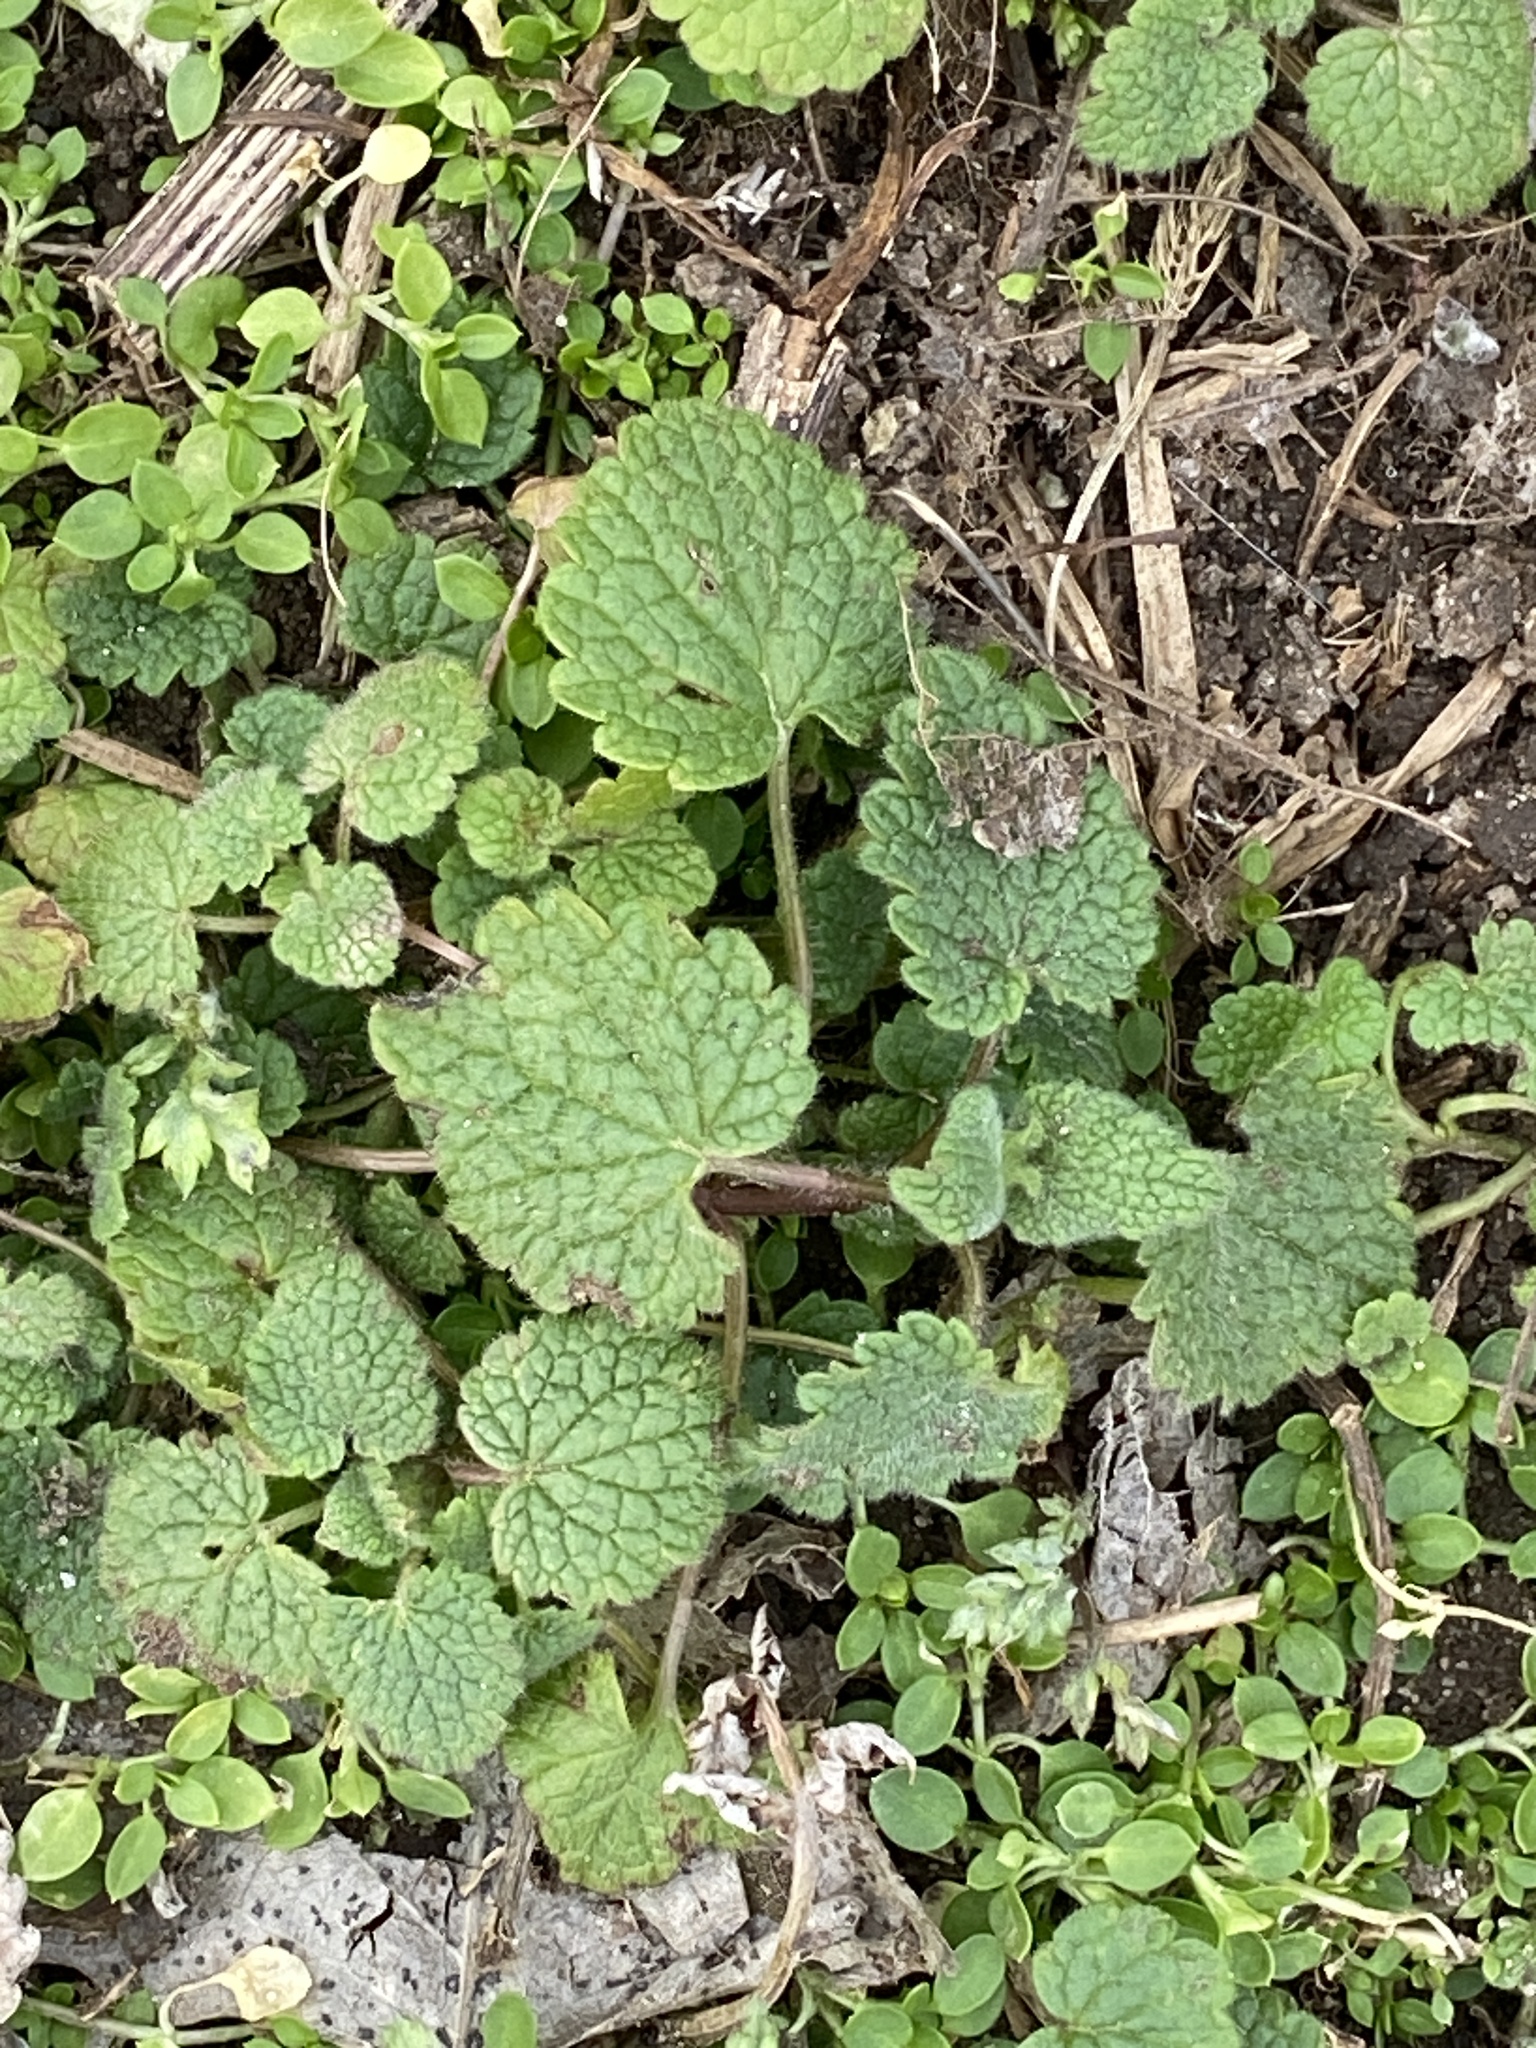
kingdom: Plantae
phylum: Tracheophyta
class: Magnoliopsida
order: Lamiales
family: Lamiaceae
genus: Lamium
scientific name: Lamium purpureum
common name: Red dead-nettle
